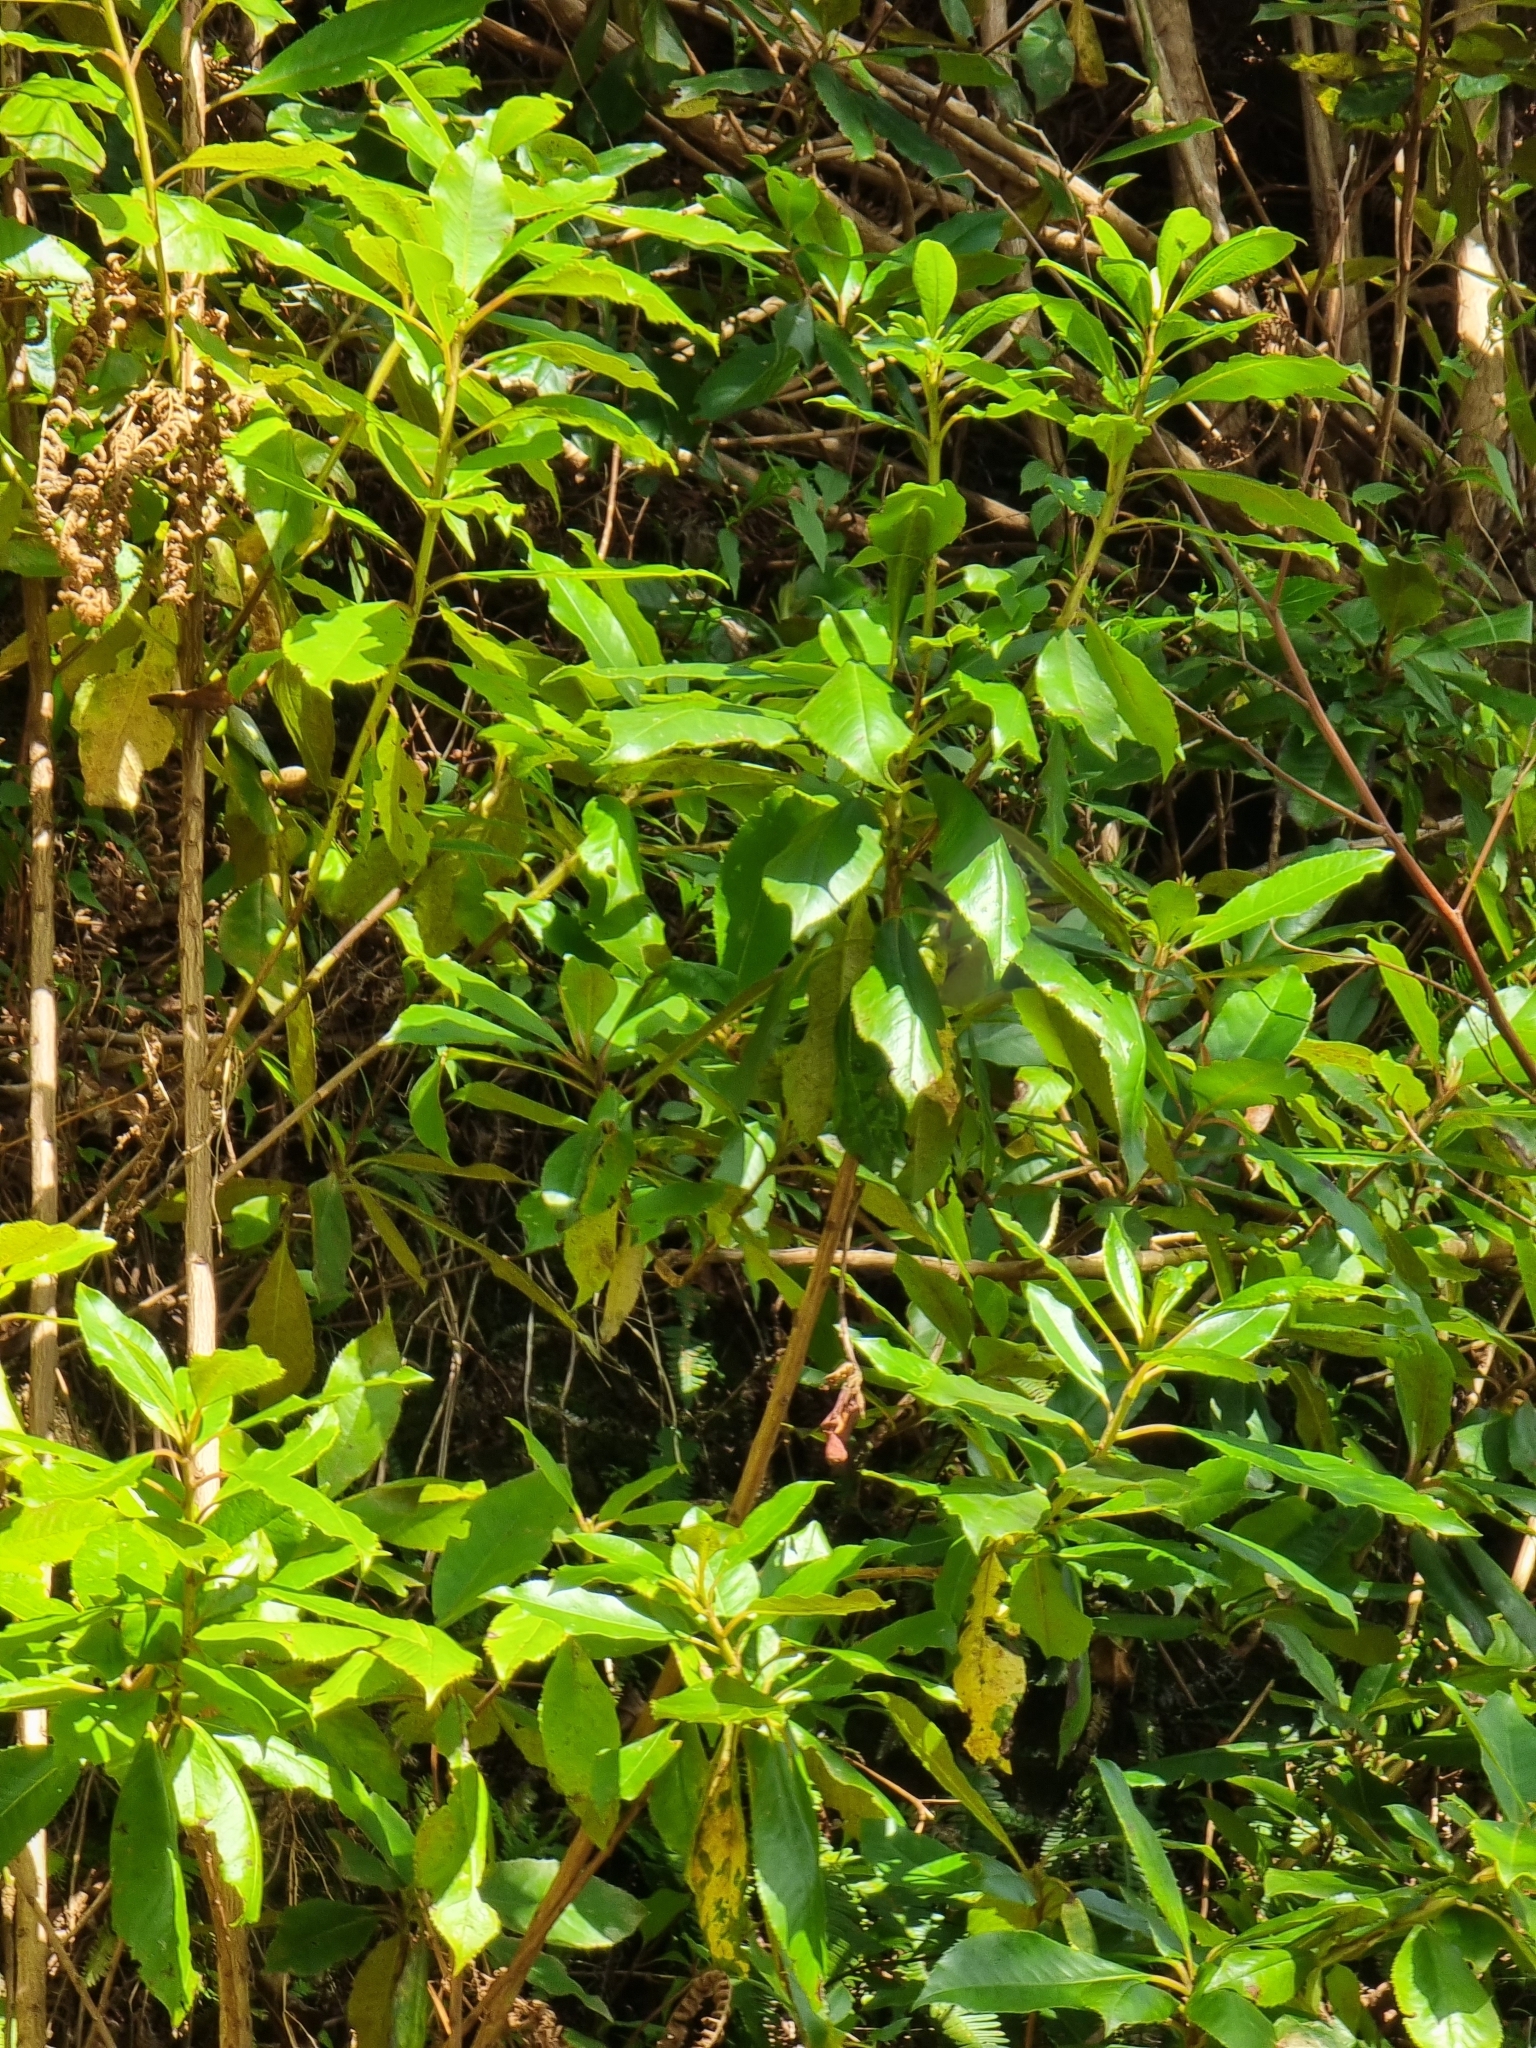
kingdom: Plantae
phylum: Tracheophyta
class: Magnoliopsida
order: Ericales
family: Clethraceae
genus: Clethra
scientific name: Clethra arborea
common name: Lily-of-the-valley-tree
